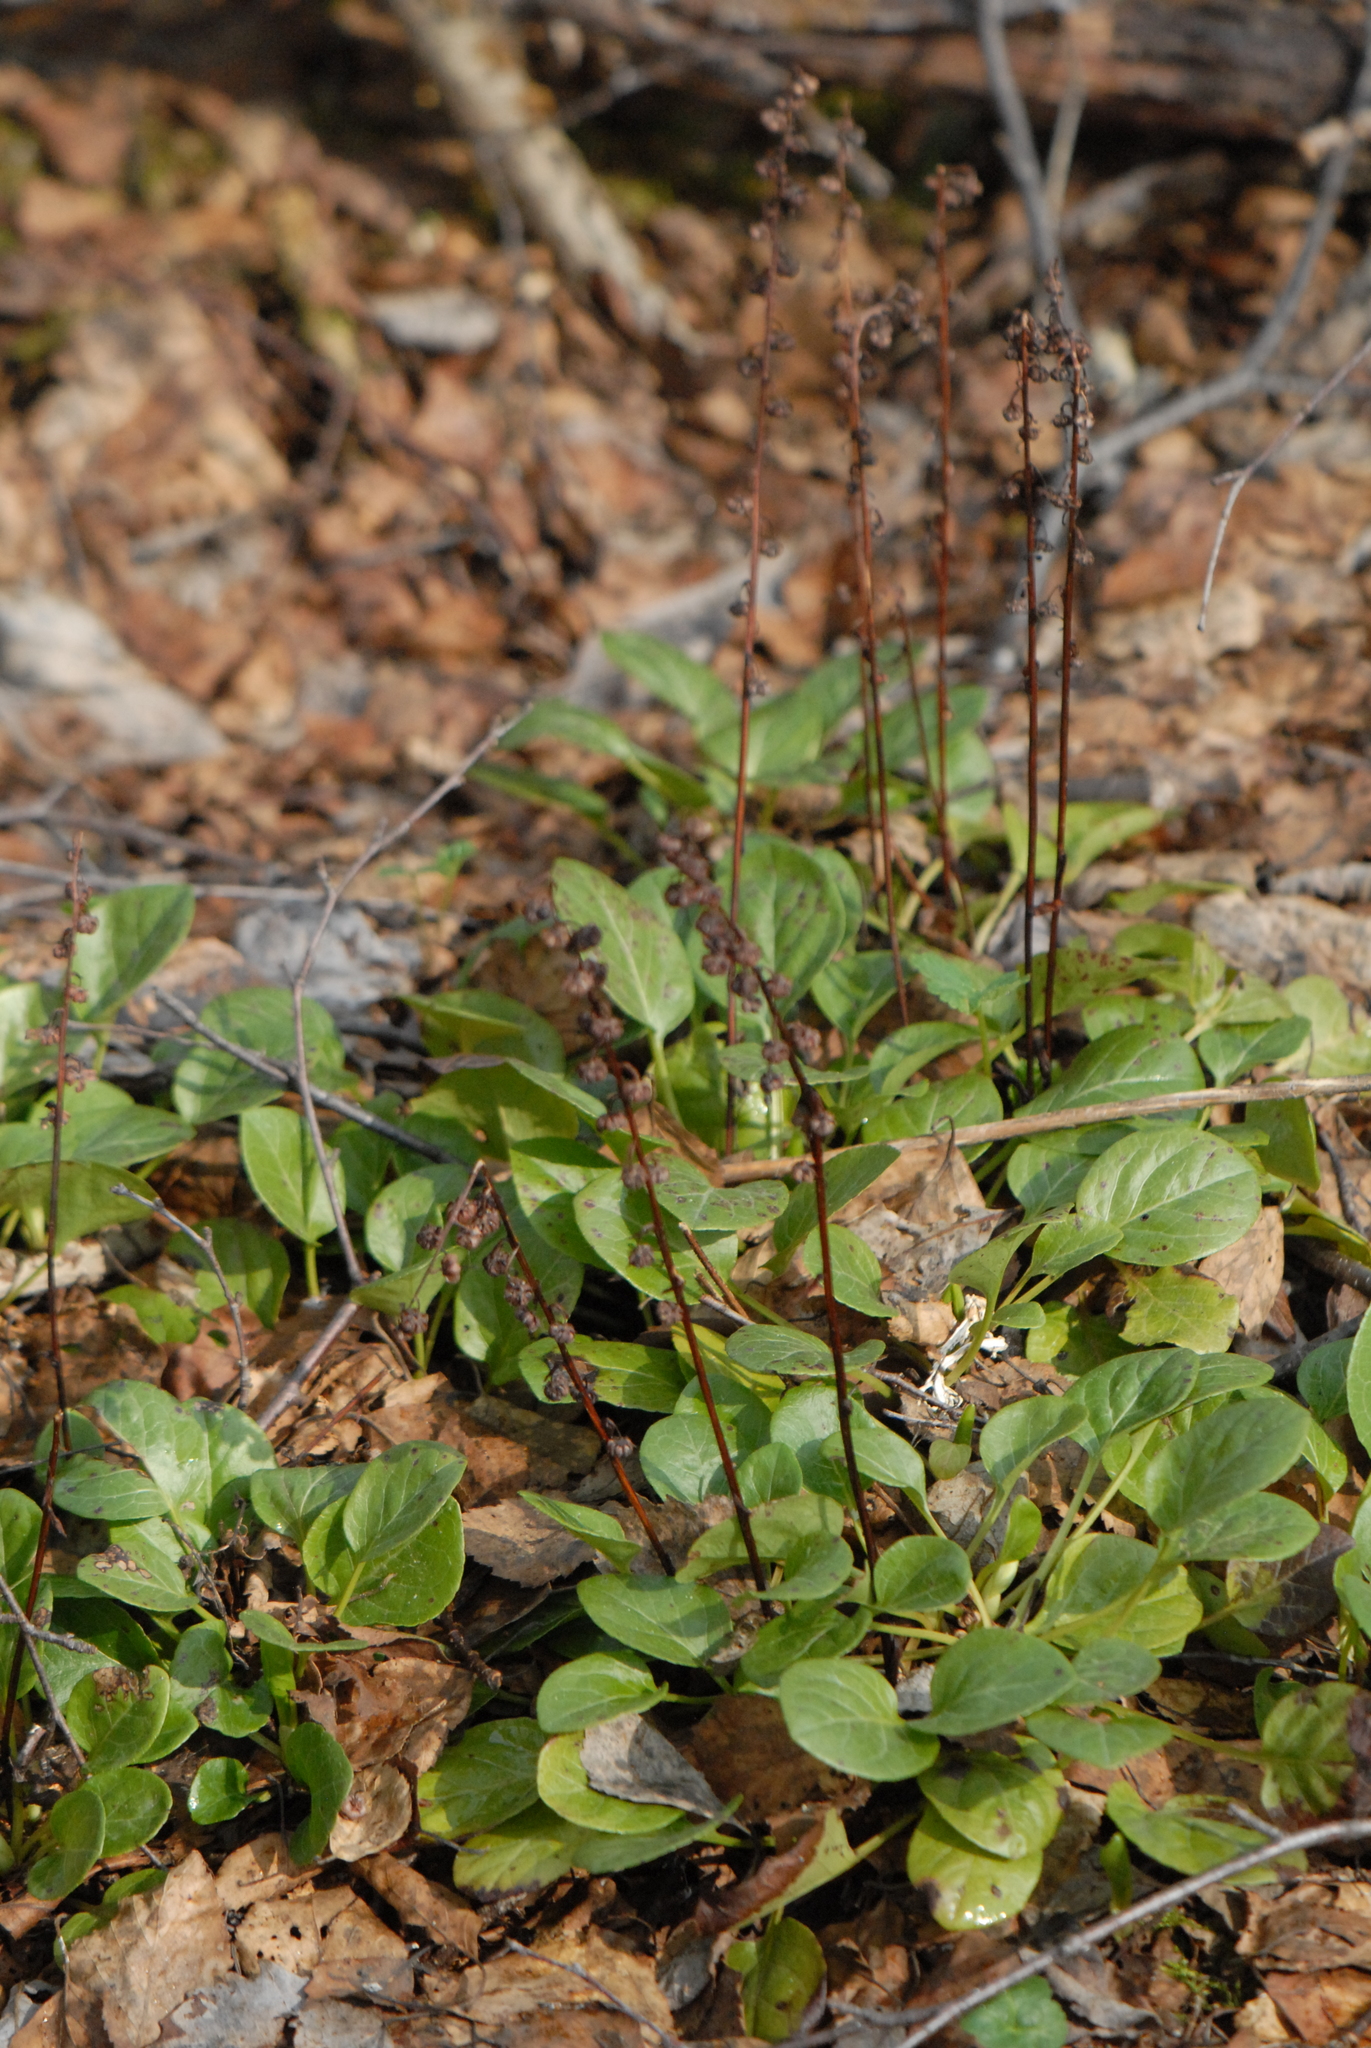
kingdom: Plantae
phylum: Tracheophyta
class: Magnoliopsida
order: Ericales
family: Ericaceae
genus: Pyrola
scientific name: Pyrola rotundifolia
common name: Round-leaved wintergreen
